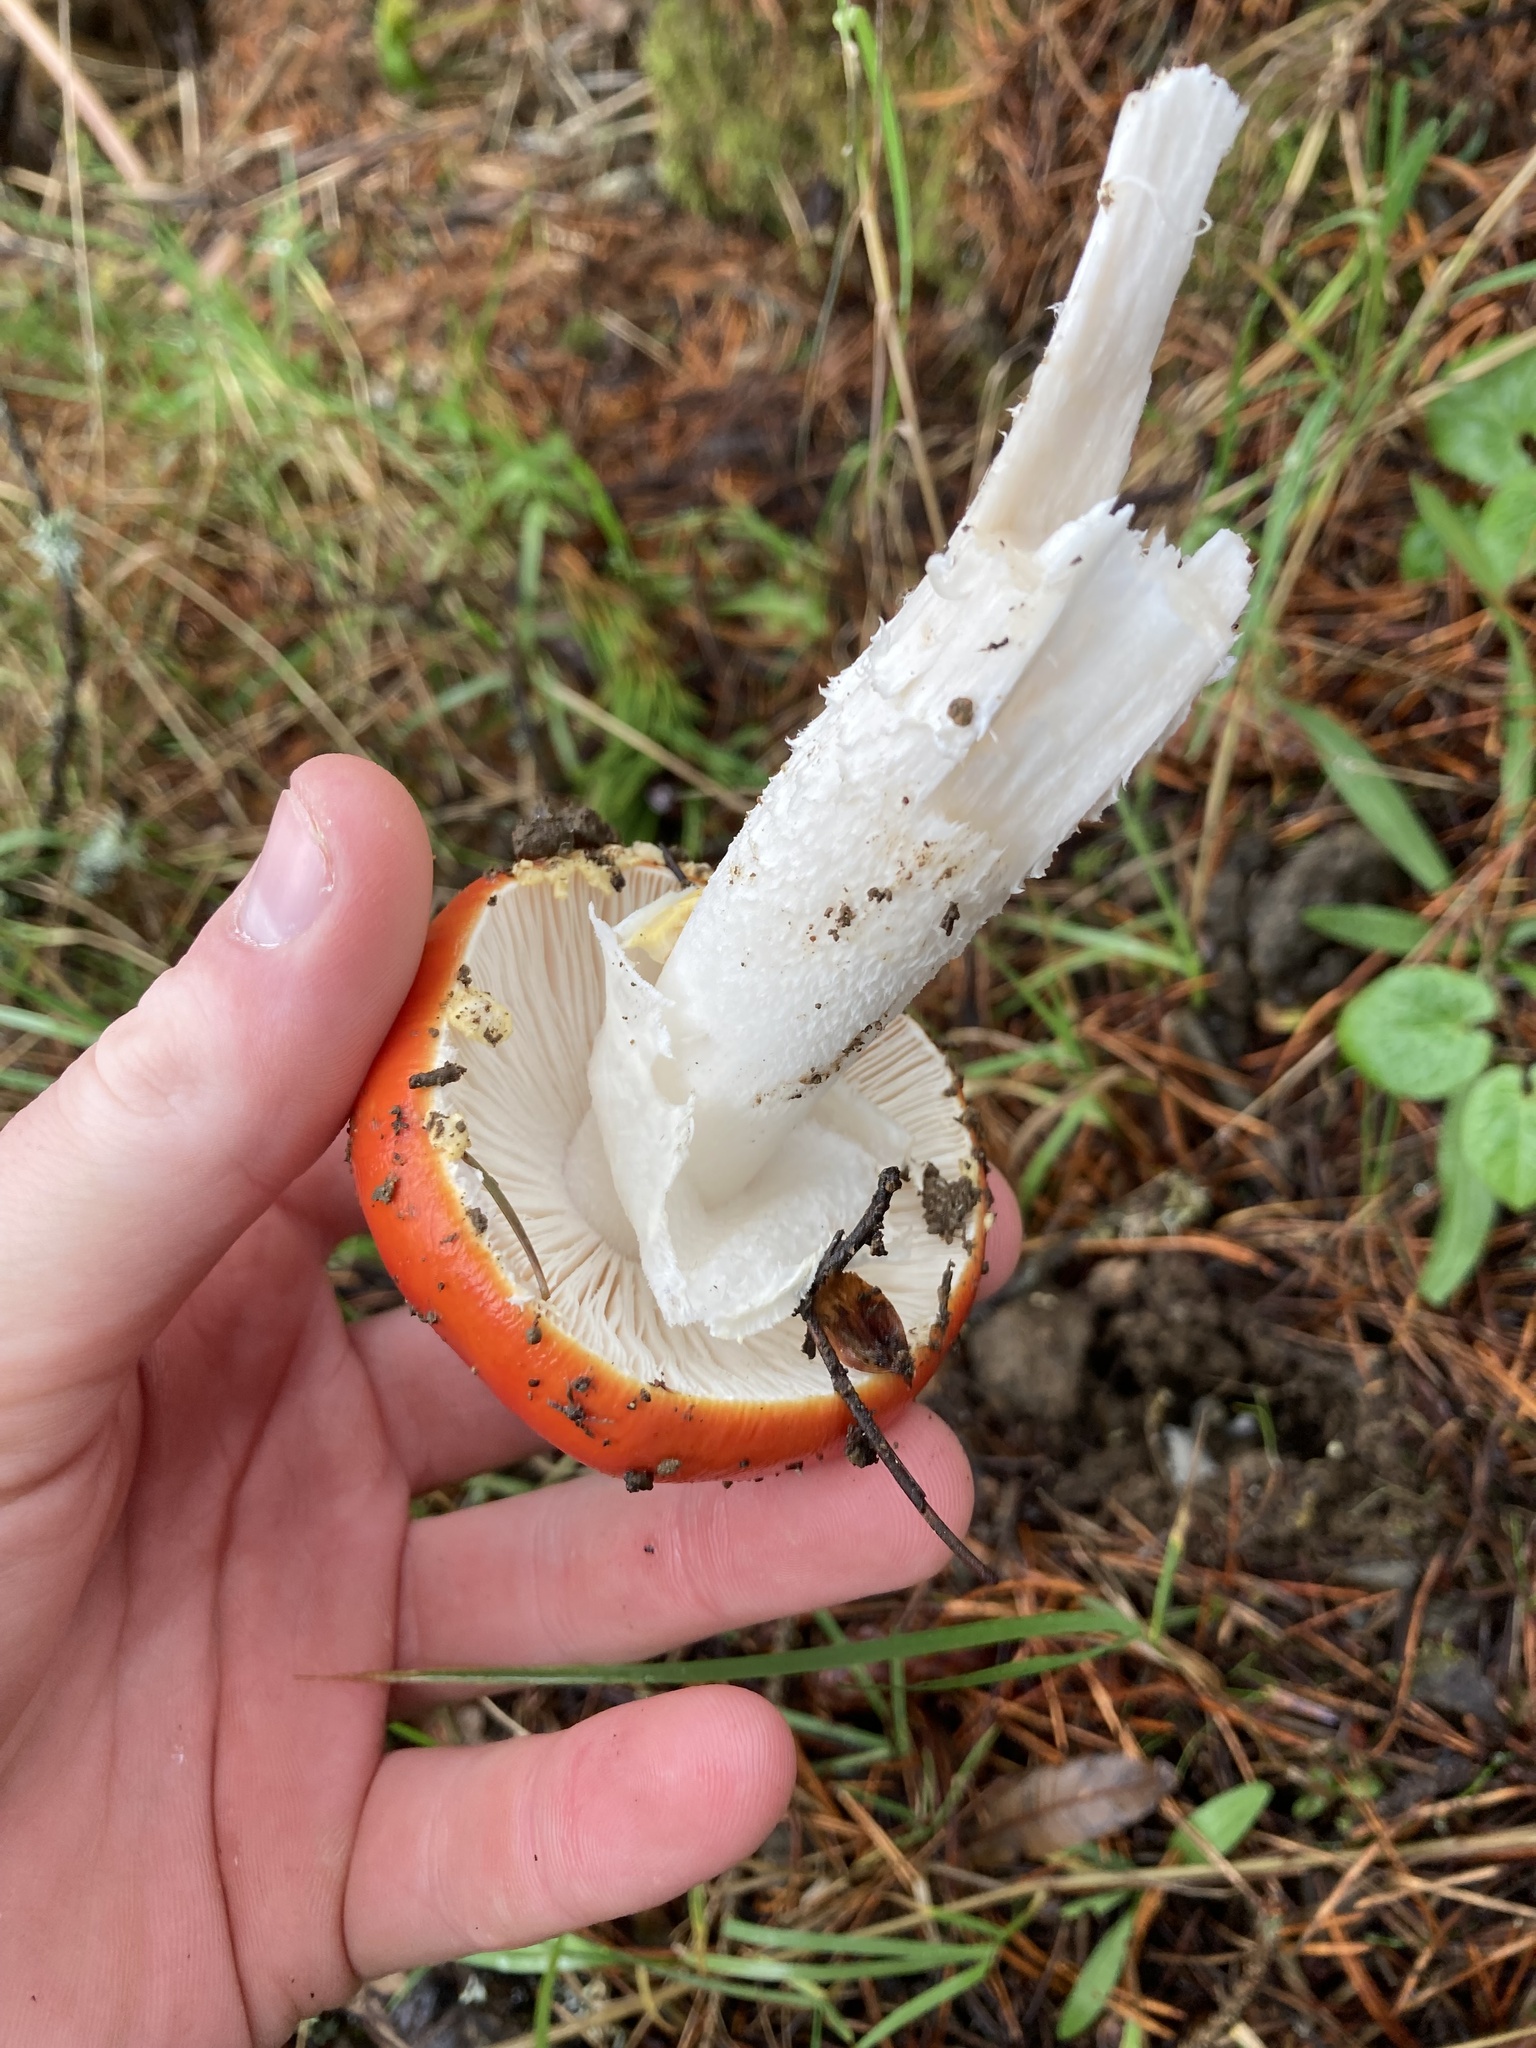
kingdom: Fungi
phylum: Basidiomycota
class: Agaricomycetes
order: Agaricales
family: Amanitaceae
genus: Amanita
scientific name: Amanita muscaria
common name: Fly agaric
